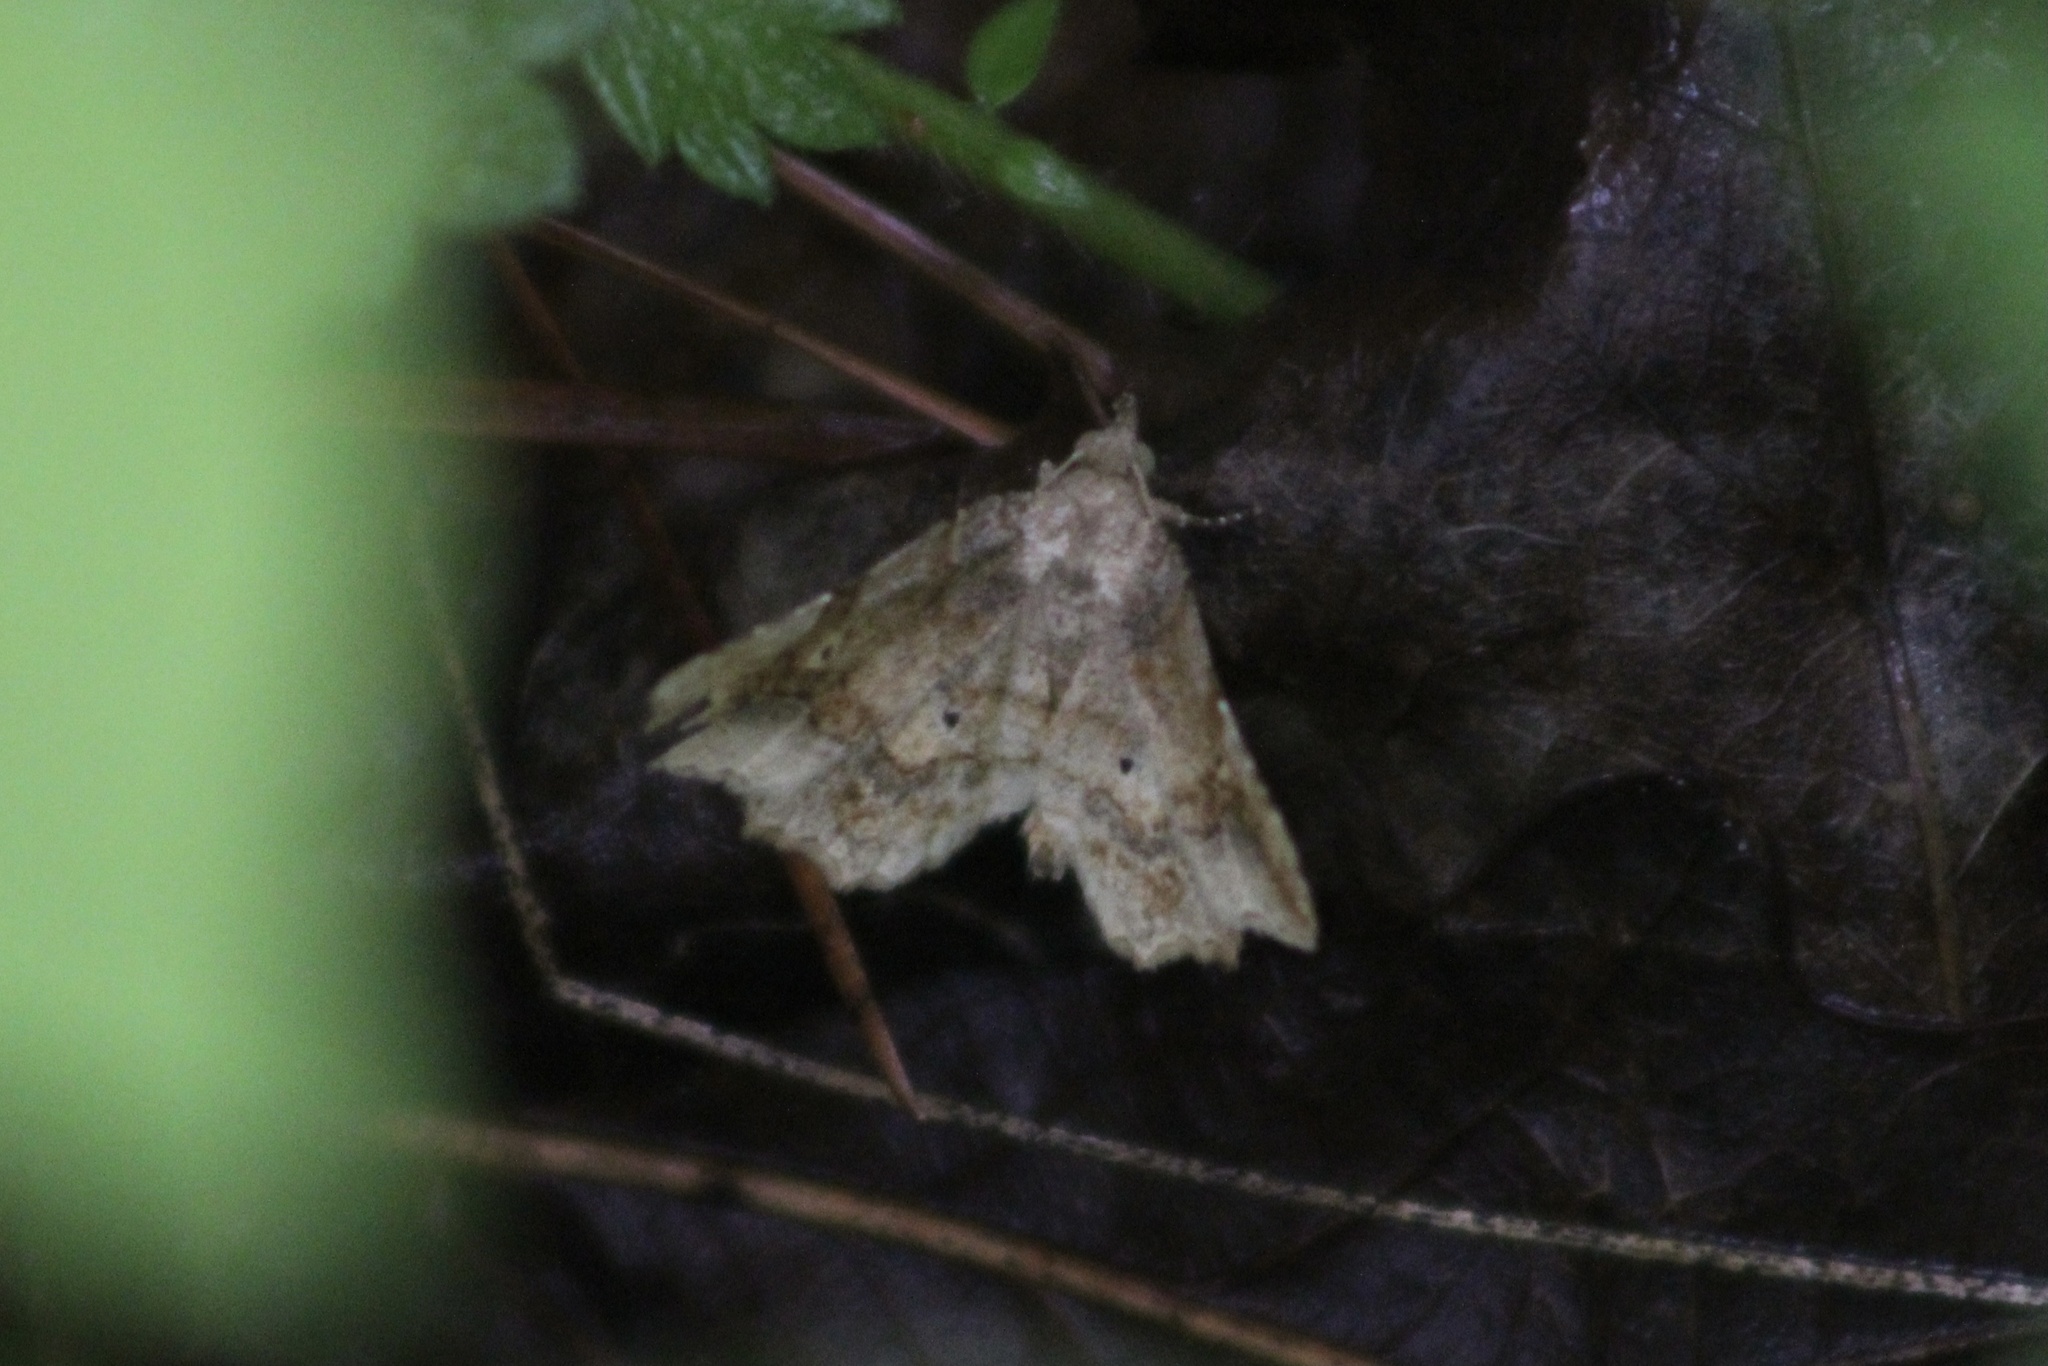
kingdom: Animalia
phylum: Arthropoda
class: Insecta
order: Lepidoptera
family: Erebidae
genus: Pangrapta
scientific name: Pangrapta decoralis
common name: Decorated owlet
